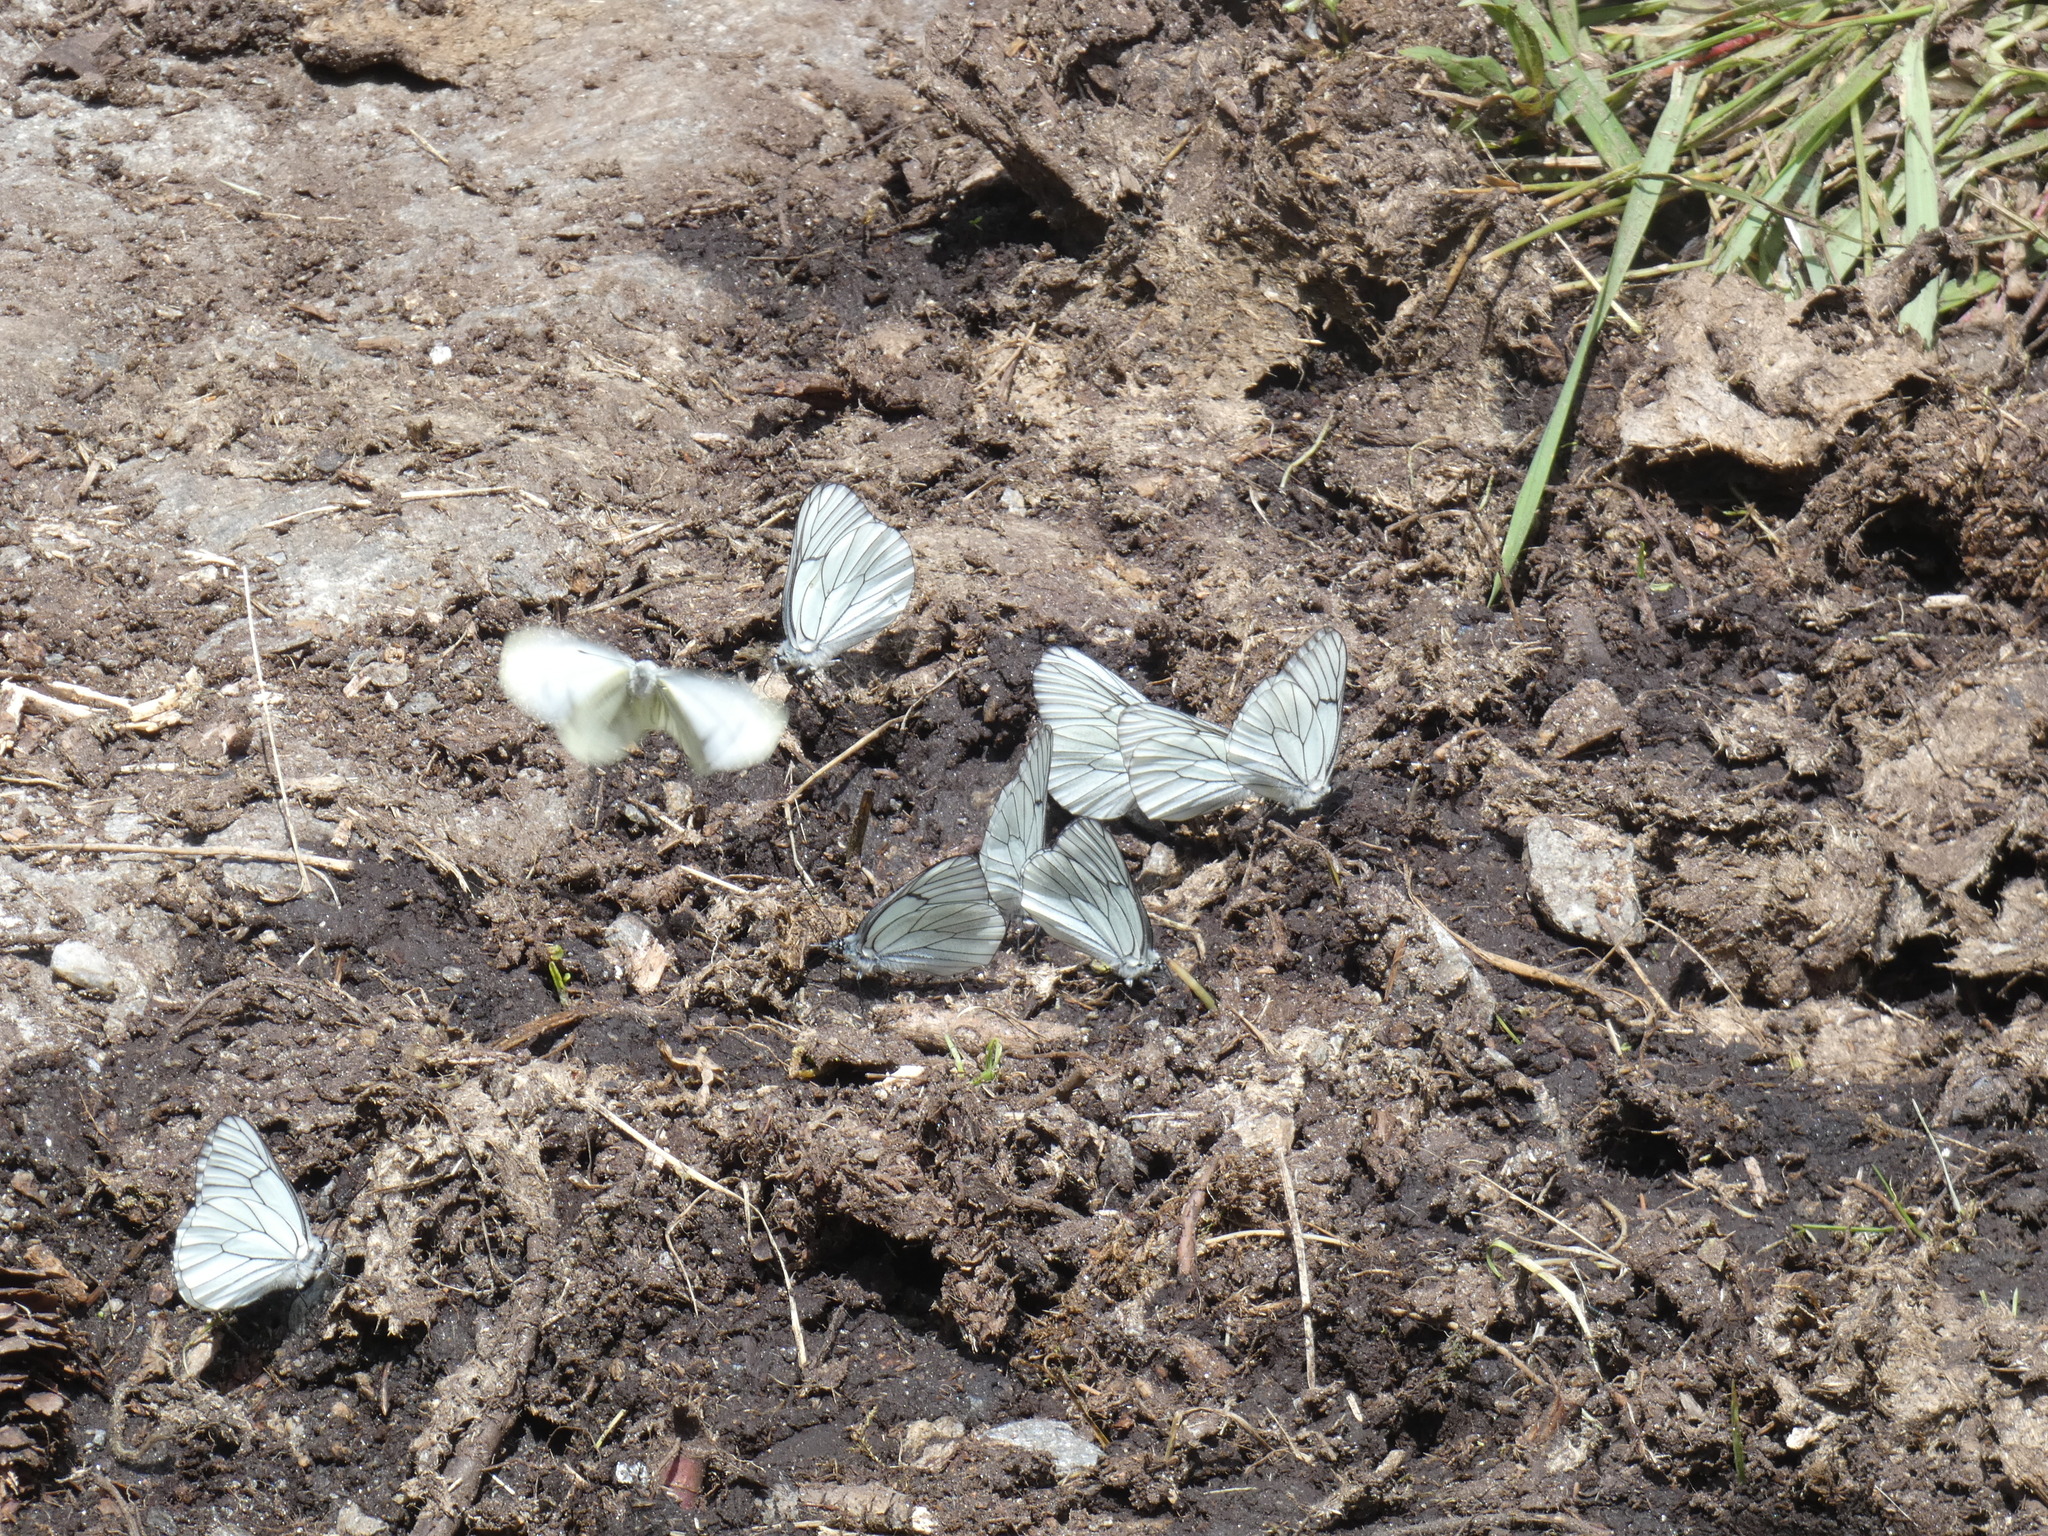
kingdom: Animalia
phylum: Arthropoda
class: Insecta
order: Lepidoptera
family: Pieridae
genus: Aporia
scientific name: Aporia crataegi
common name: Black-veined white
